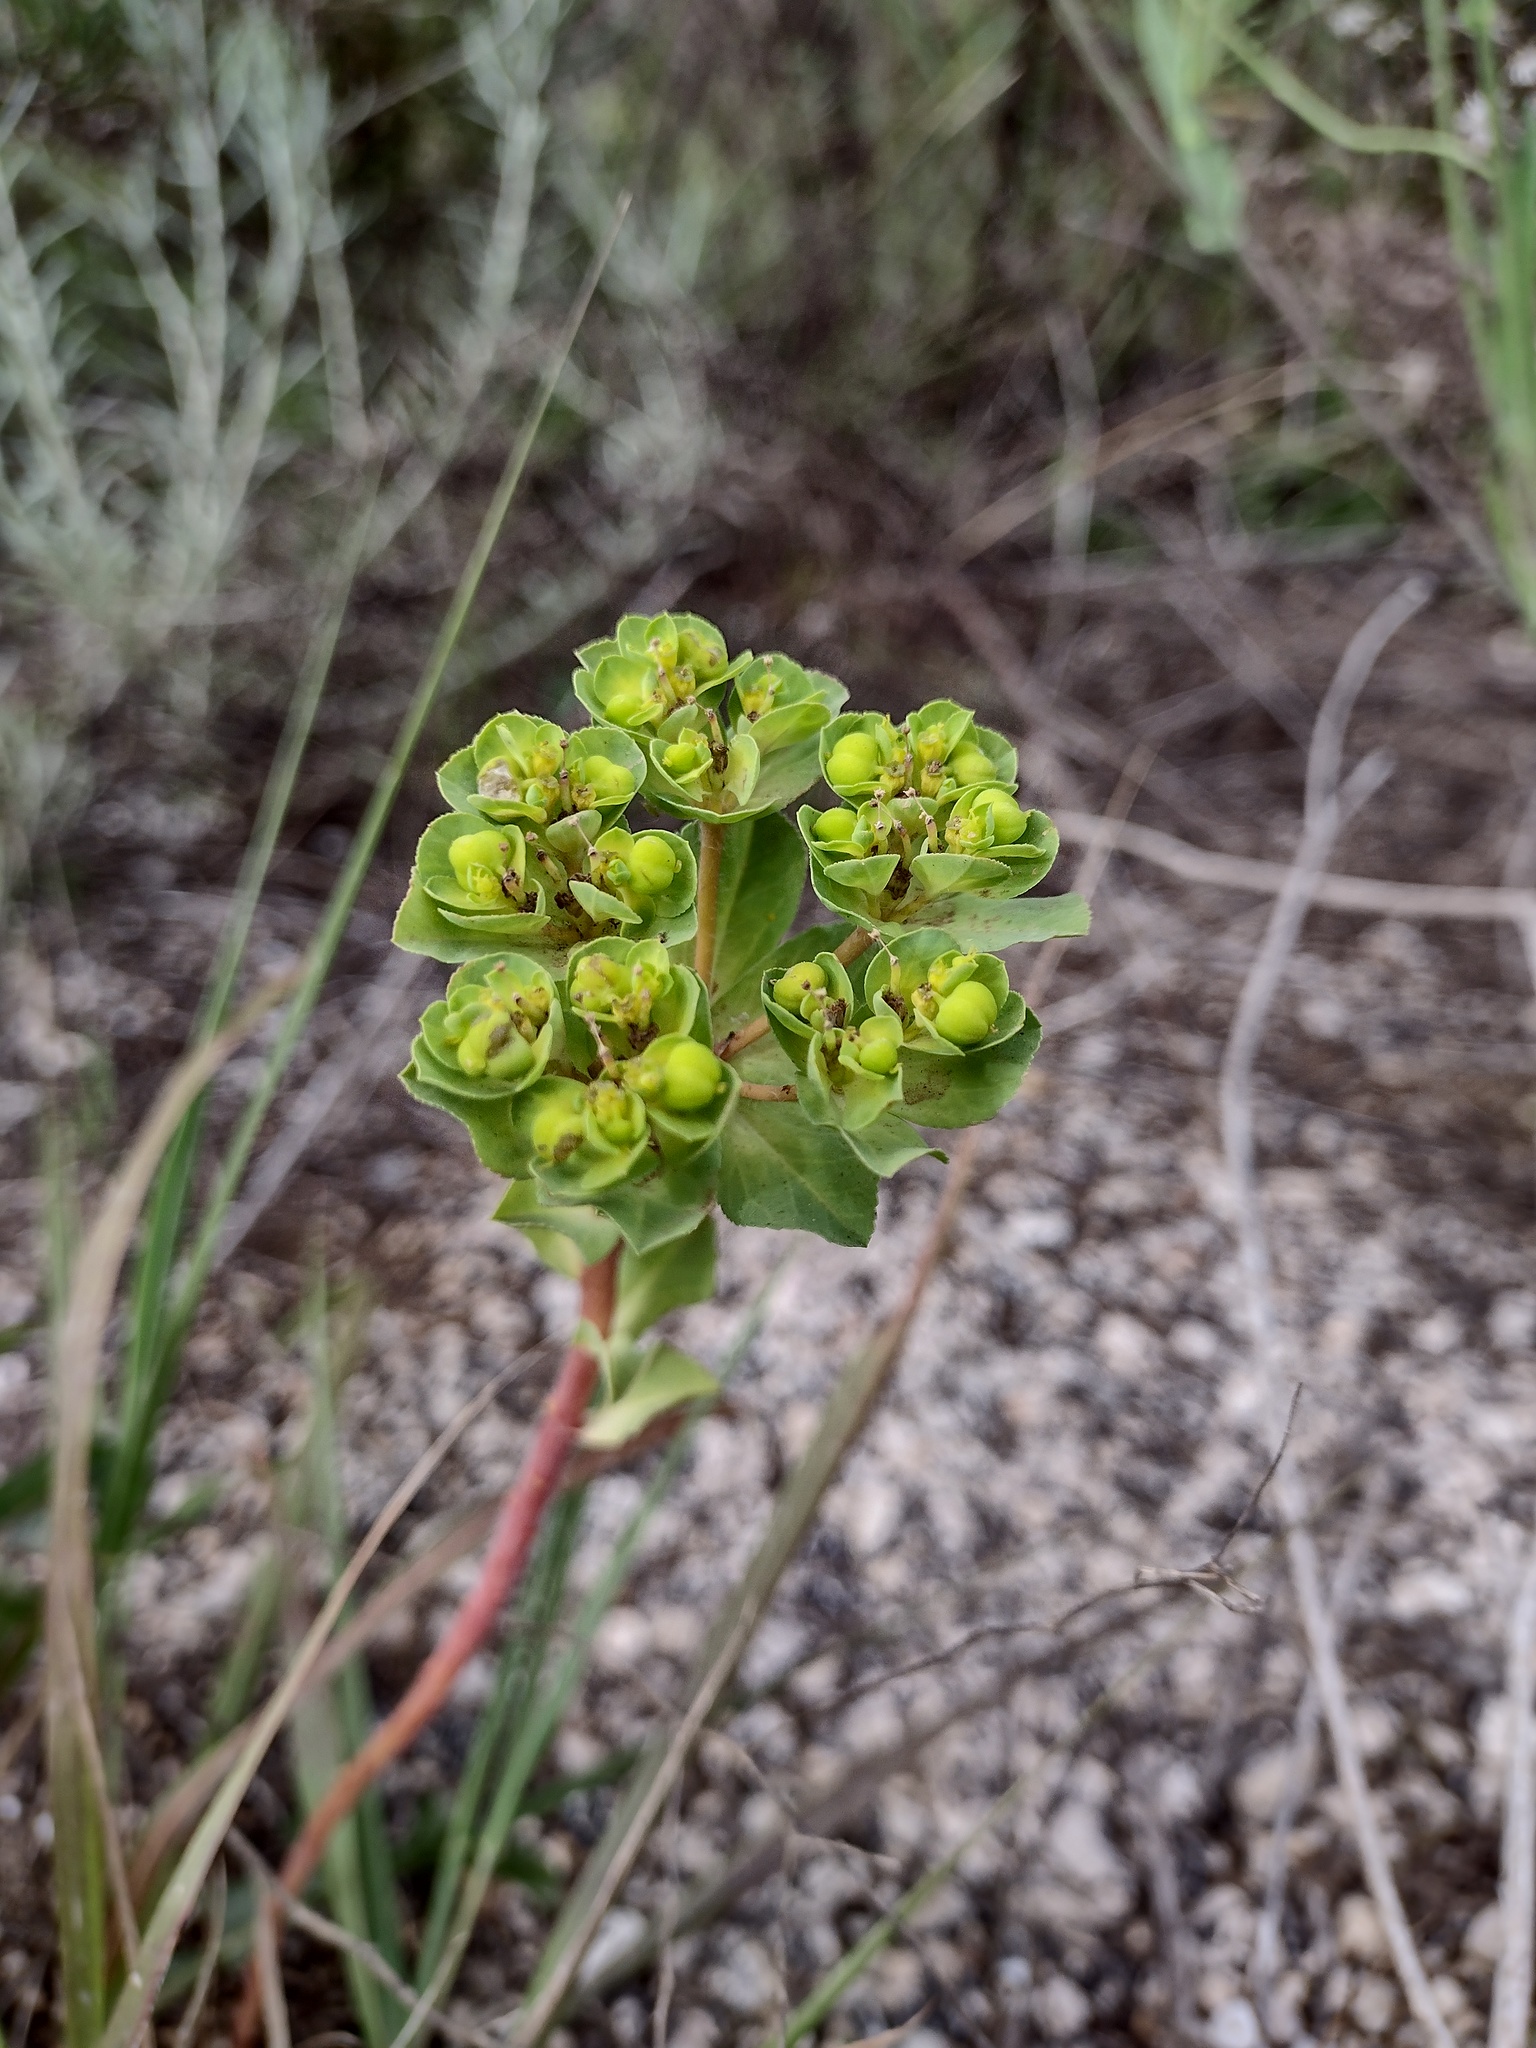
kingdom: Plantae
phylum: Tracheophyta
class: Magnoliopsida
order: Malpighiales
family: Euphorbiaceae
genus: Euphorbia
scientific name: Euphorbia helioscopia
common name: Sun spurge
